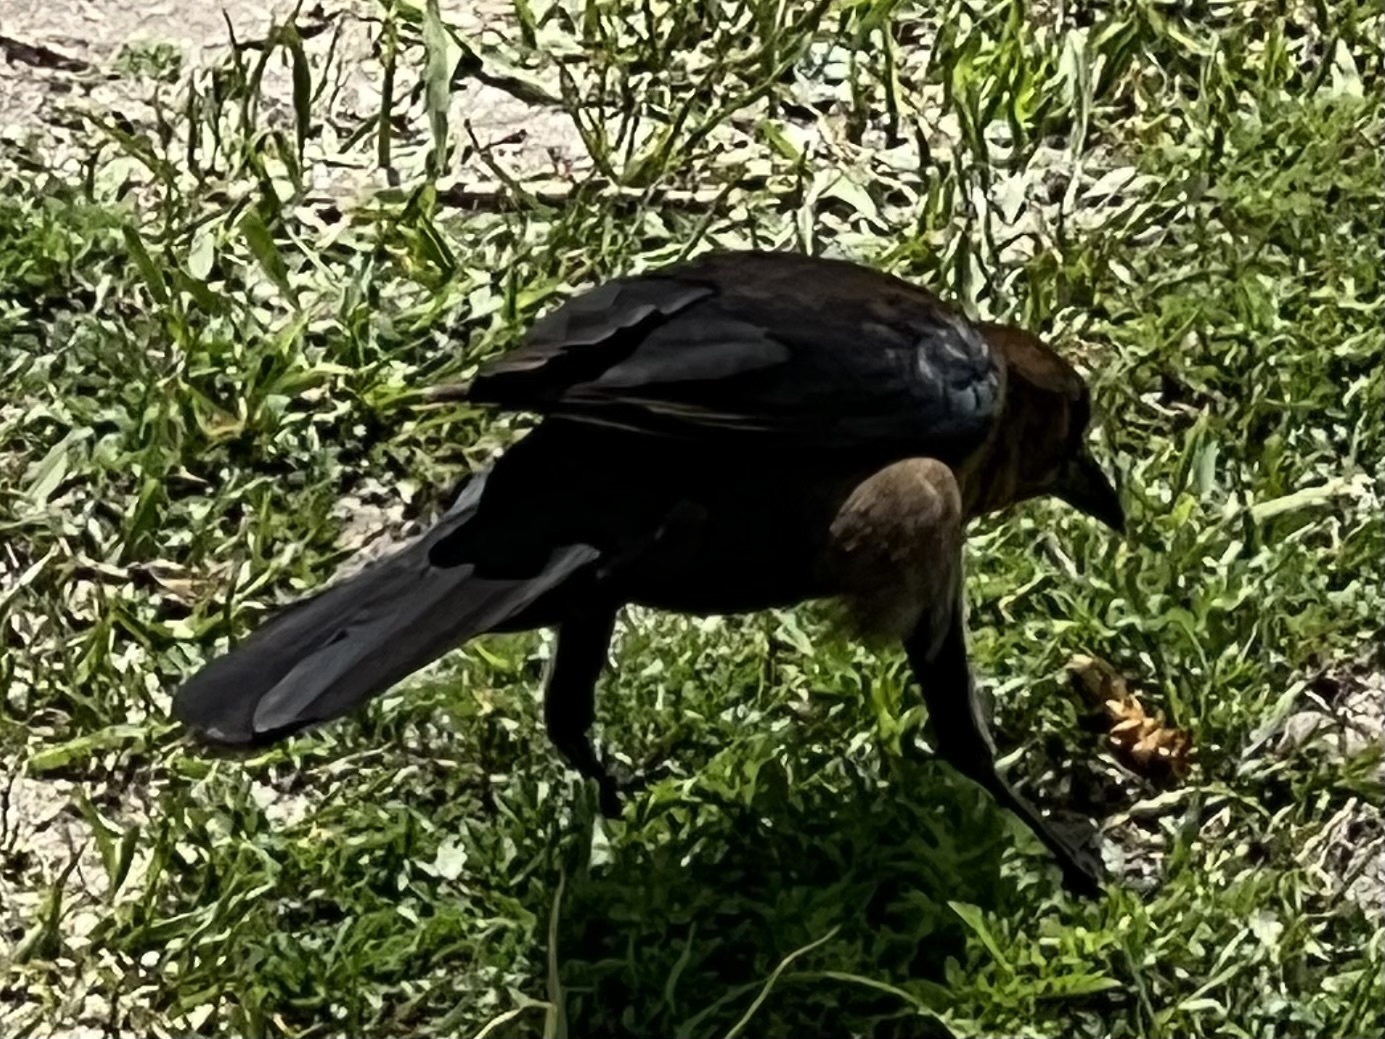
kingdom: Animalia
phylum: Chordata
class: Aves
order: Passeriformes
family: Icteridae
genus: Quiscalus
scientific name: Quiscalus major
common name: Boat-tailed grackle
